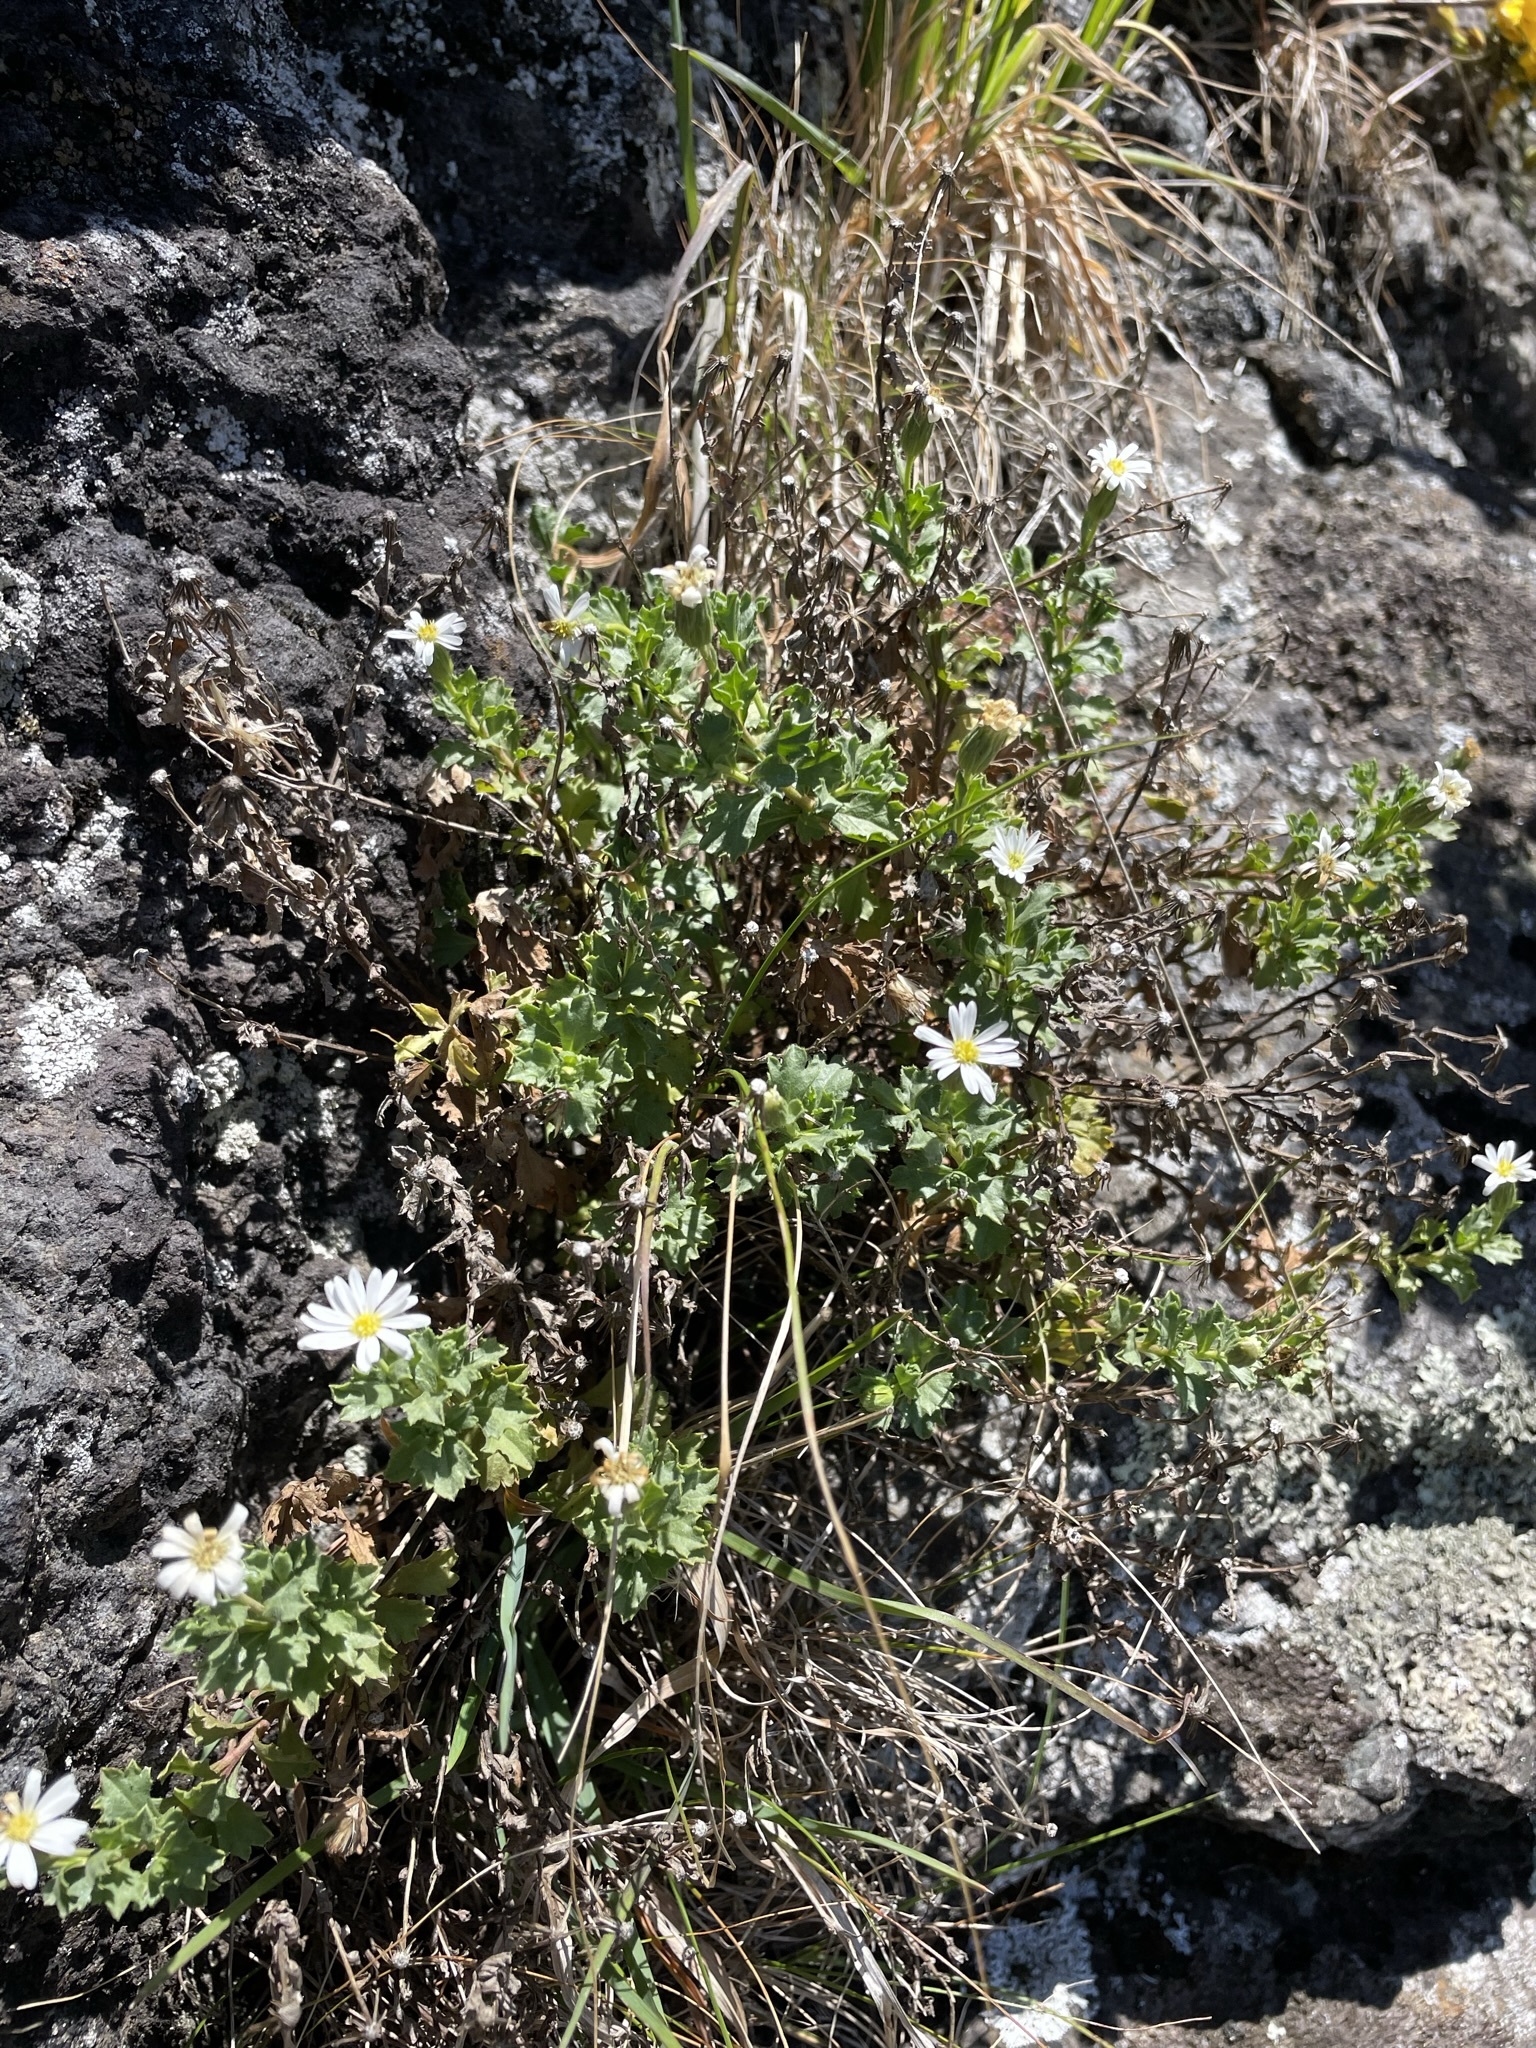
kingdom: Plantae
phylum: Tracheophyta
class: Magnoliopsida
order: Asterales
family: Asteraceae
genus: Vittadinia
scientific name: Vittadinia australis
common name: White fuzzweed
